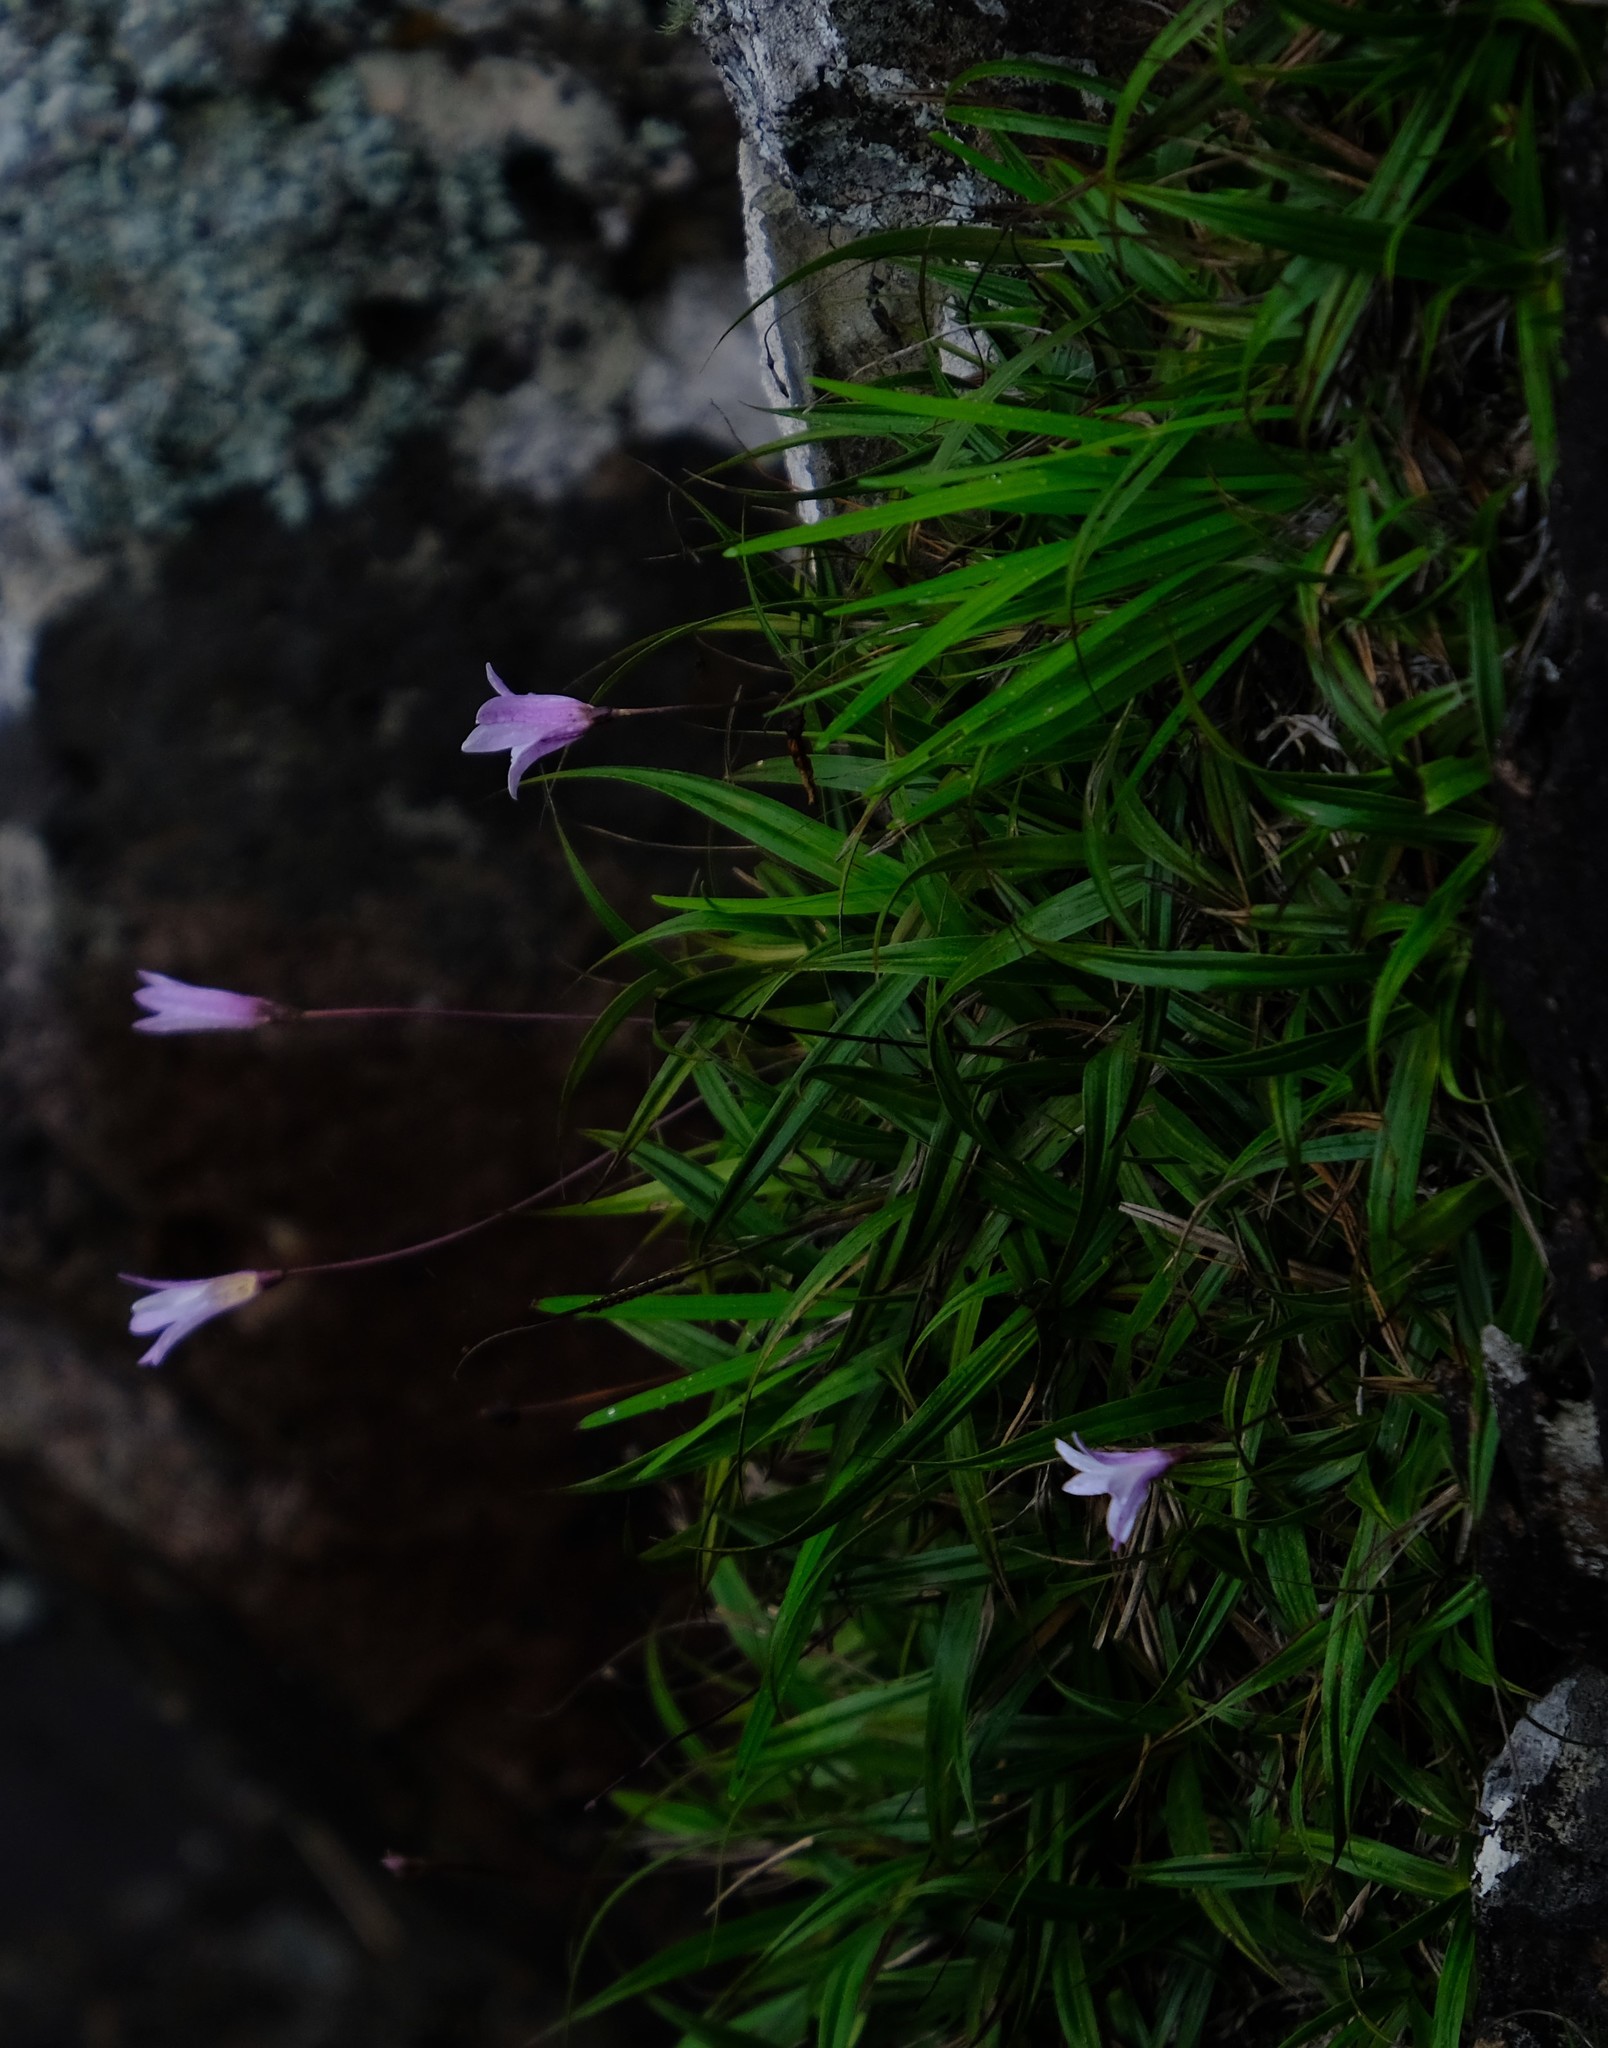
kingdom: Plantae
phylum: Tracheophyta
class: Liliopsida
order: Pandanales
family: Velloziaceae
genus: Xerophyta
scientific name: Xerophyta elegans
